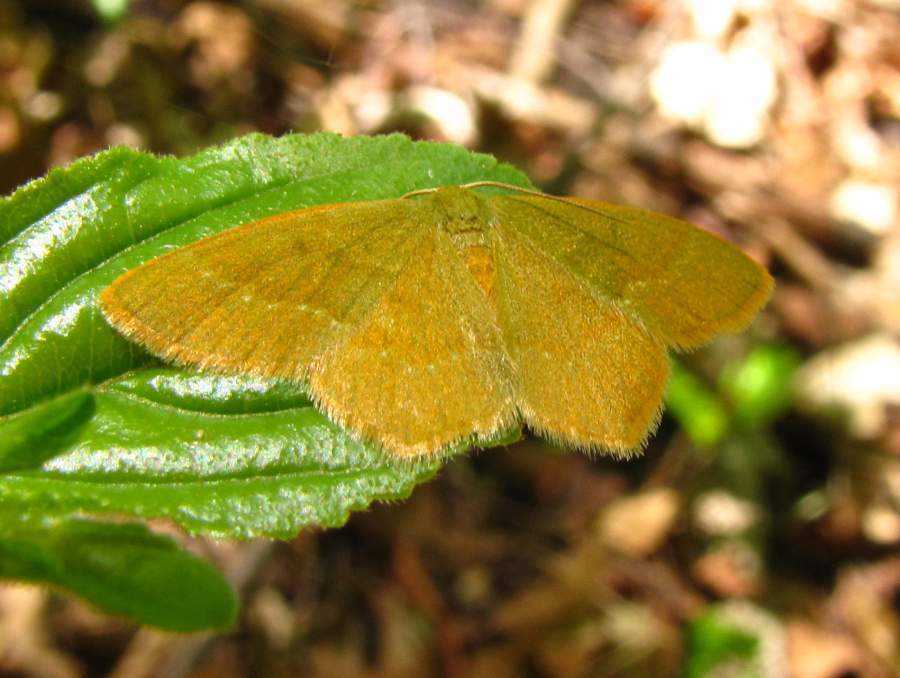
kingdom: Animalia
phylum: Arthropoda
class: Insecta
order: Lepidoptera
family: Geometridae
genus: Thalera
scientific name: Thalera pistasciaria
